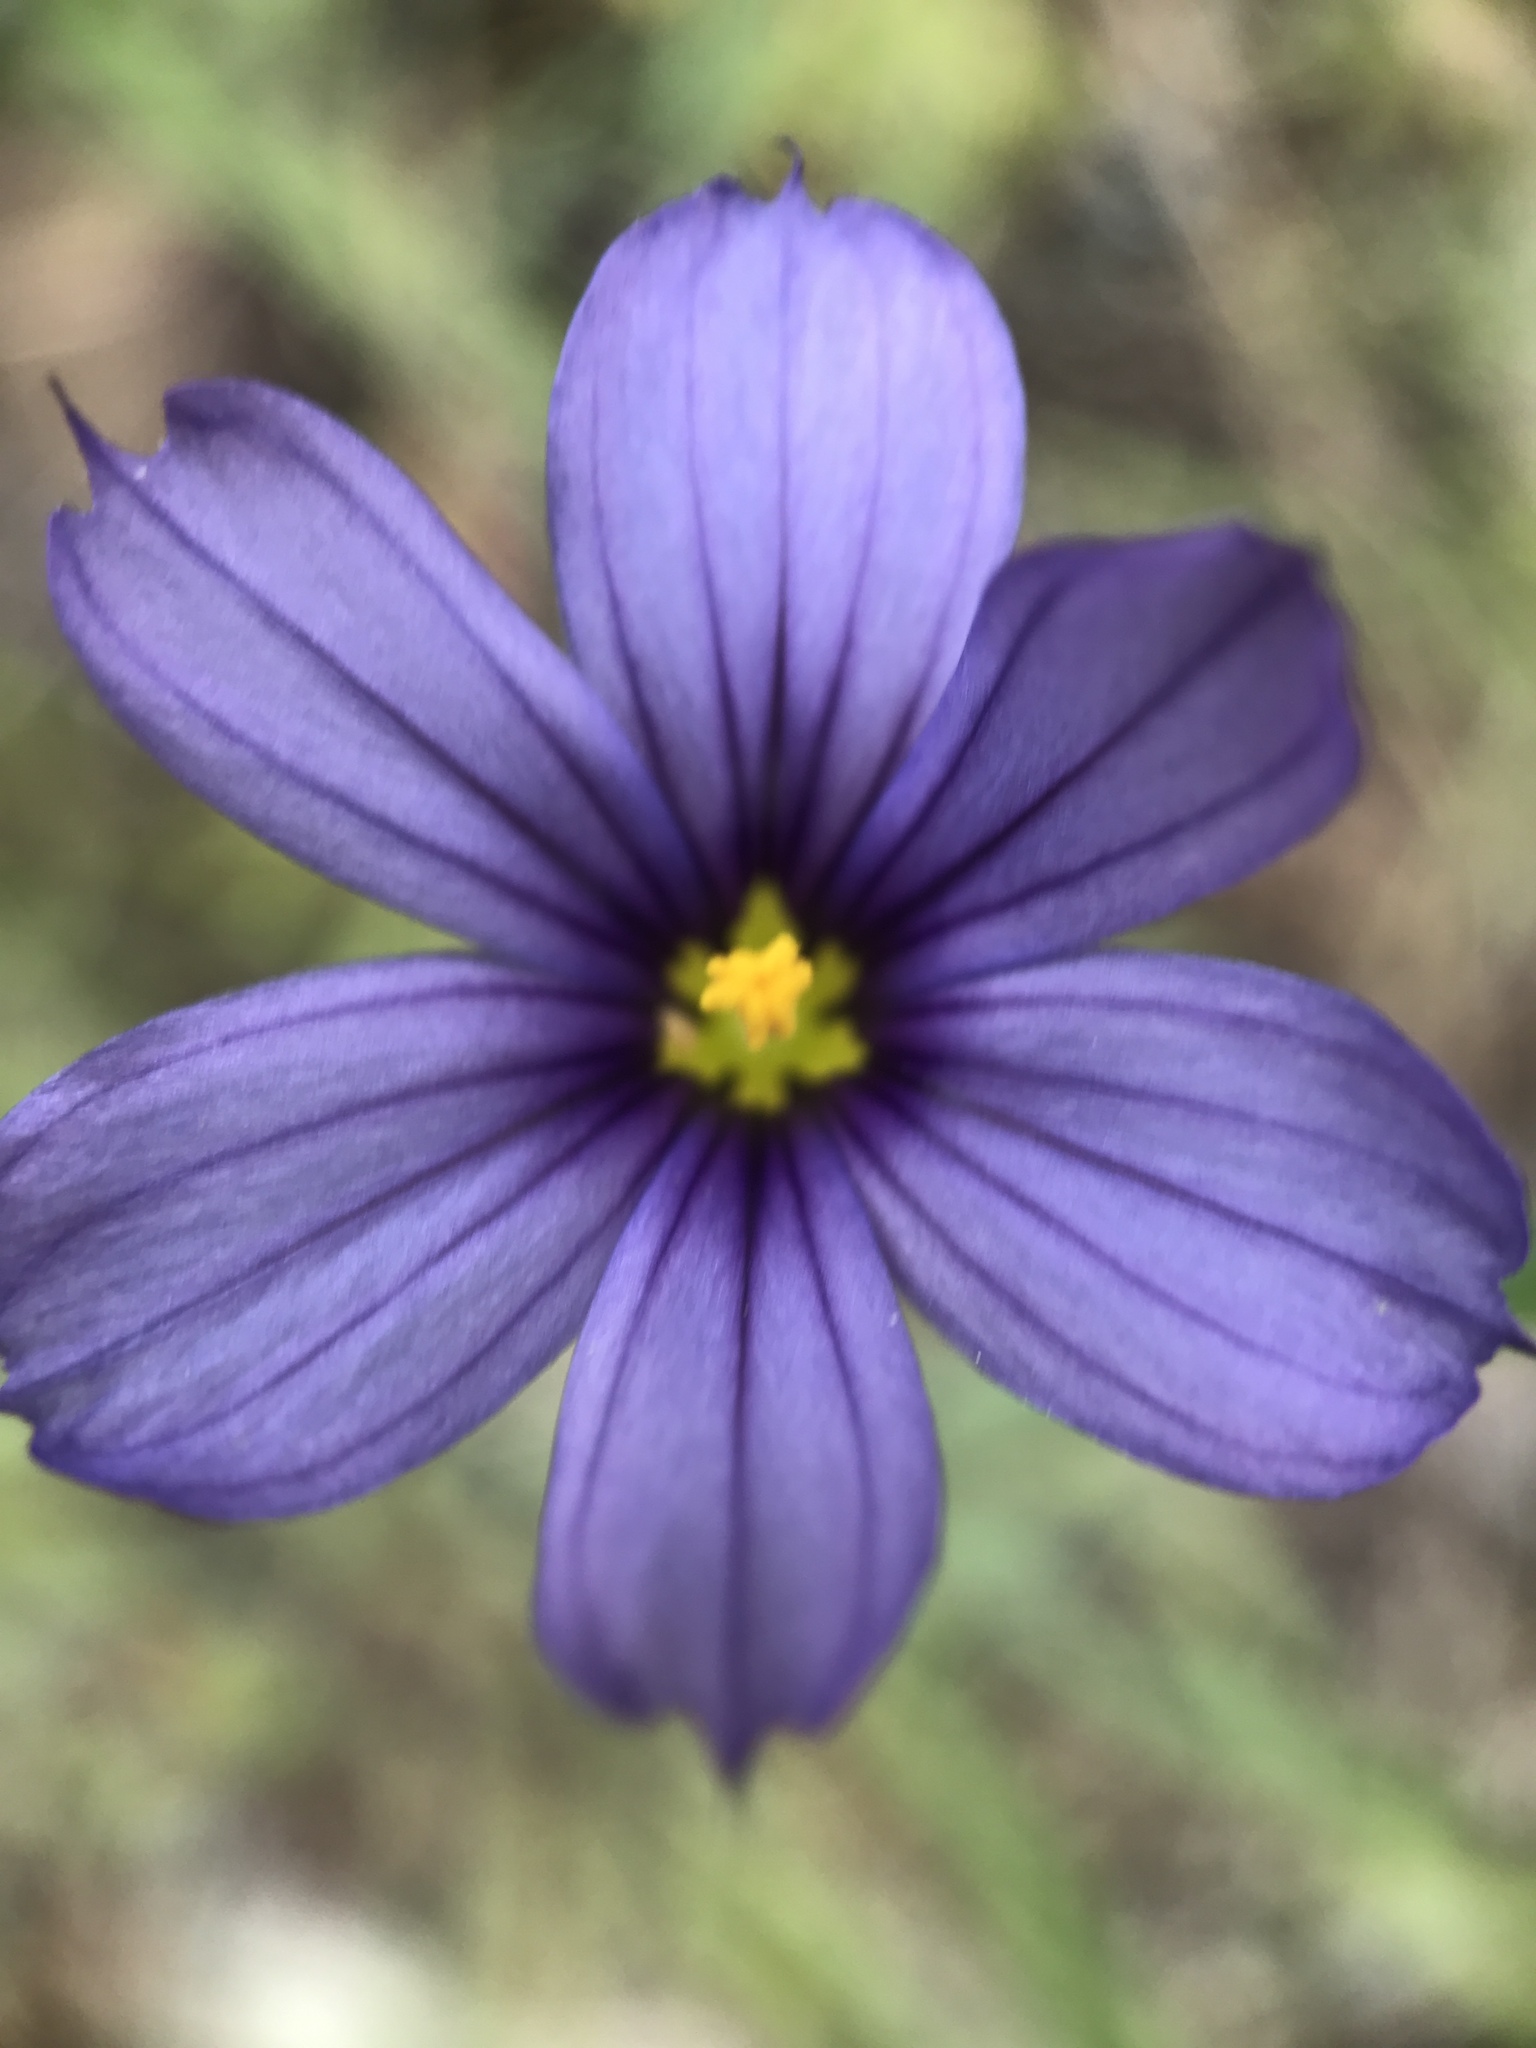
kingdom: Plantae
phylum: Tracheophyta
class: Liliopsida
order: Asparagales
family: Iridaceae
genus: Sisyrinchium
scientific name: Sisyrinchium bellum
